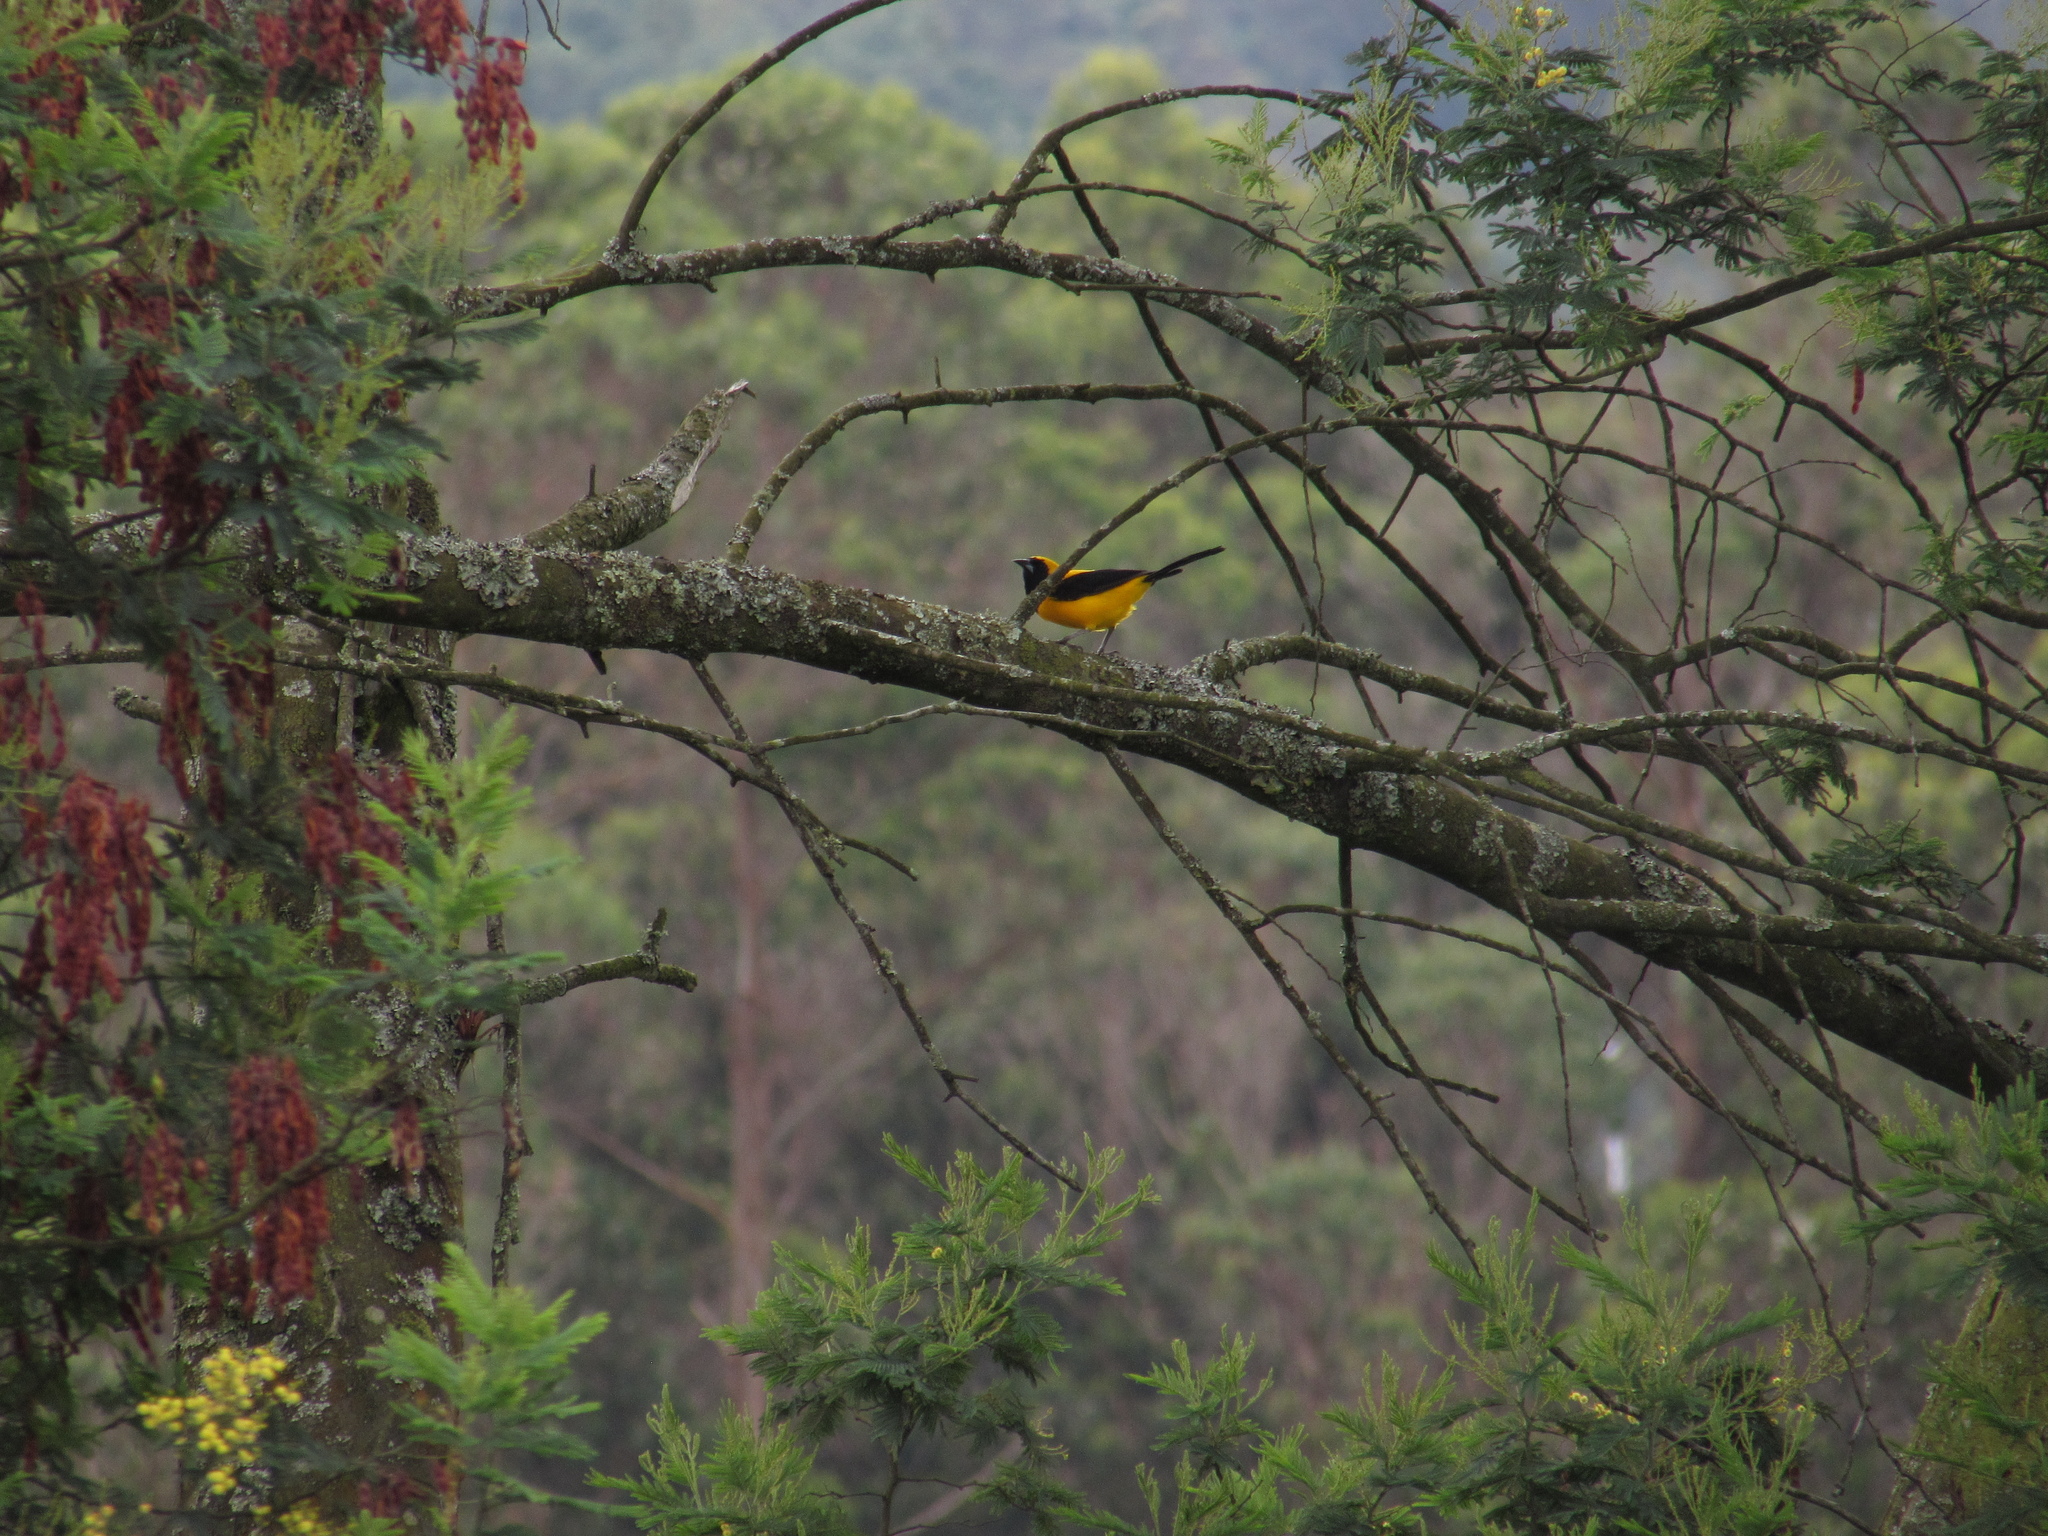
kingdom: Animalia
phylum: Chordata
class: Aves
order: Passeriformes
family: Icteridae
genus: Icterus
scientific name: Icterus chrysater
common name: Yellow-backed oriole
